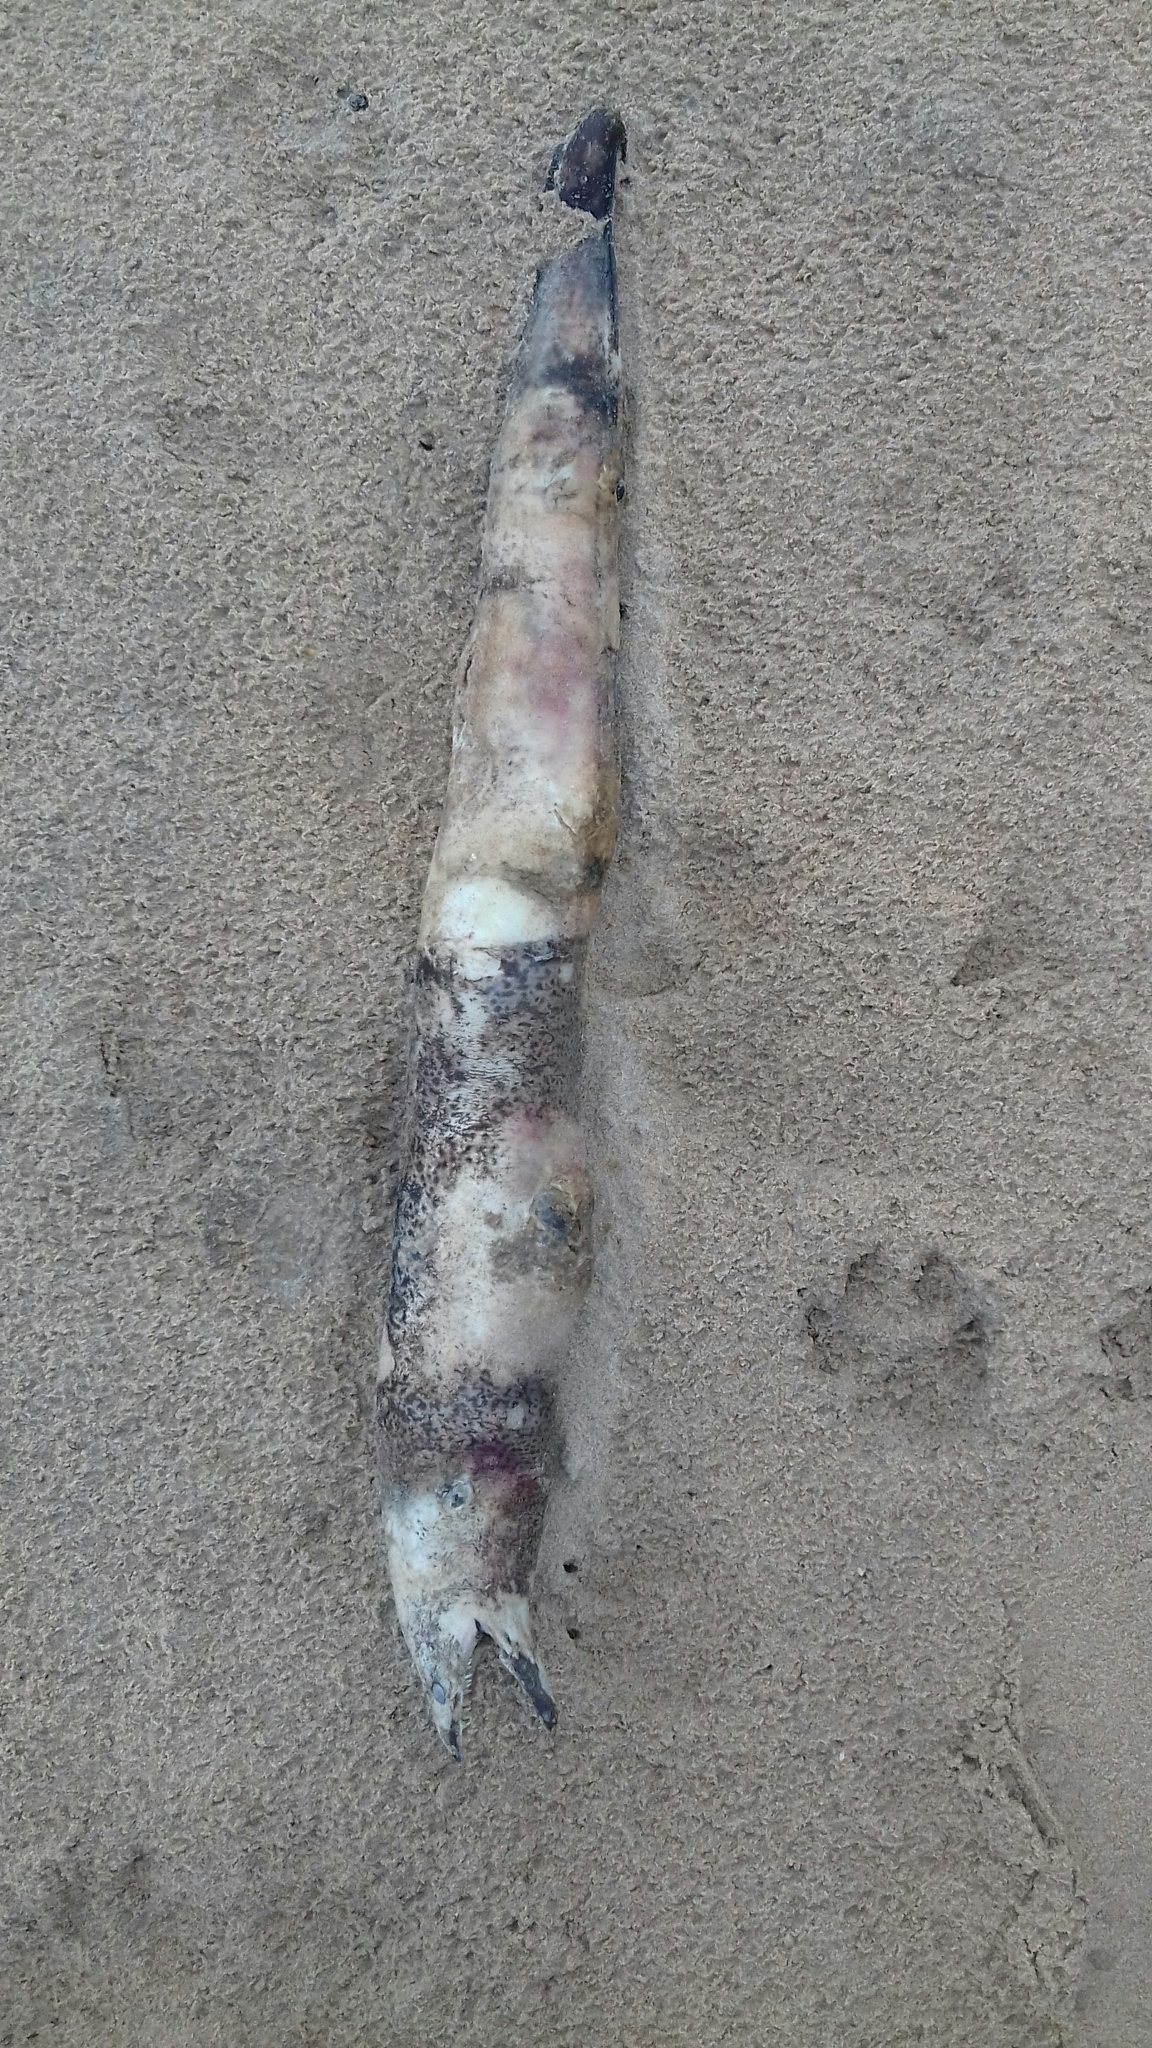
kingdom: Animalia
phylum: Chordata
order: Anguilliformes
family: Muraenidae
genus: Muraena
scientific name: Muraena helena
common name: Mediterranean moray
